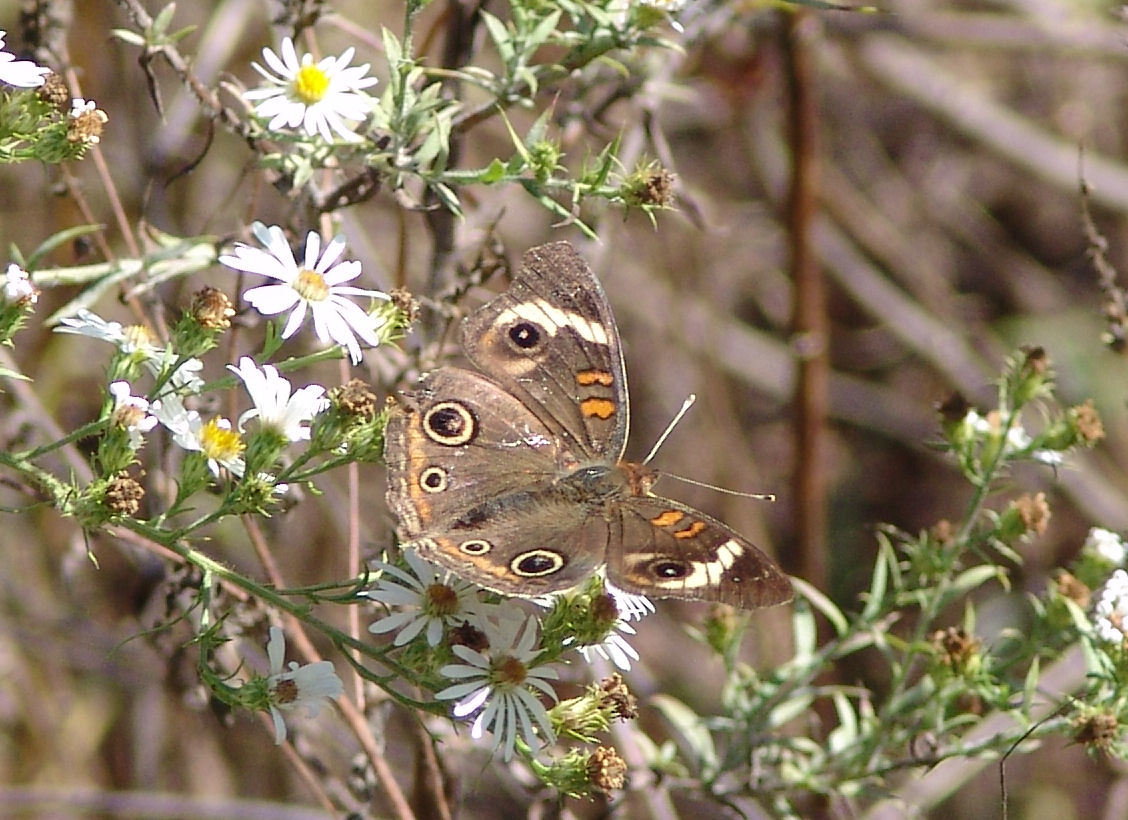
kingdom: Animalia
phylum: Arthropoda
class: Insecta
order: Lepidoptera
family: Nymphalidae
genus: Junonia
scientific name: Junonia coenia
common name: Common buckeye
